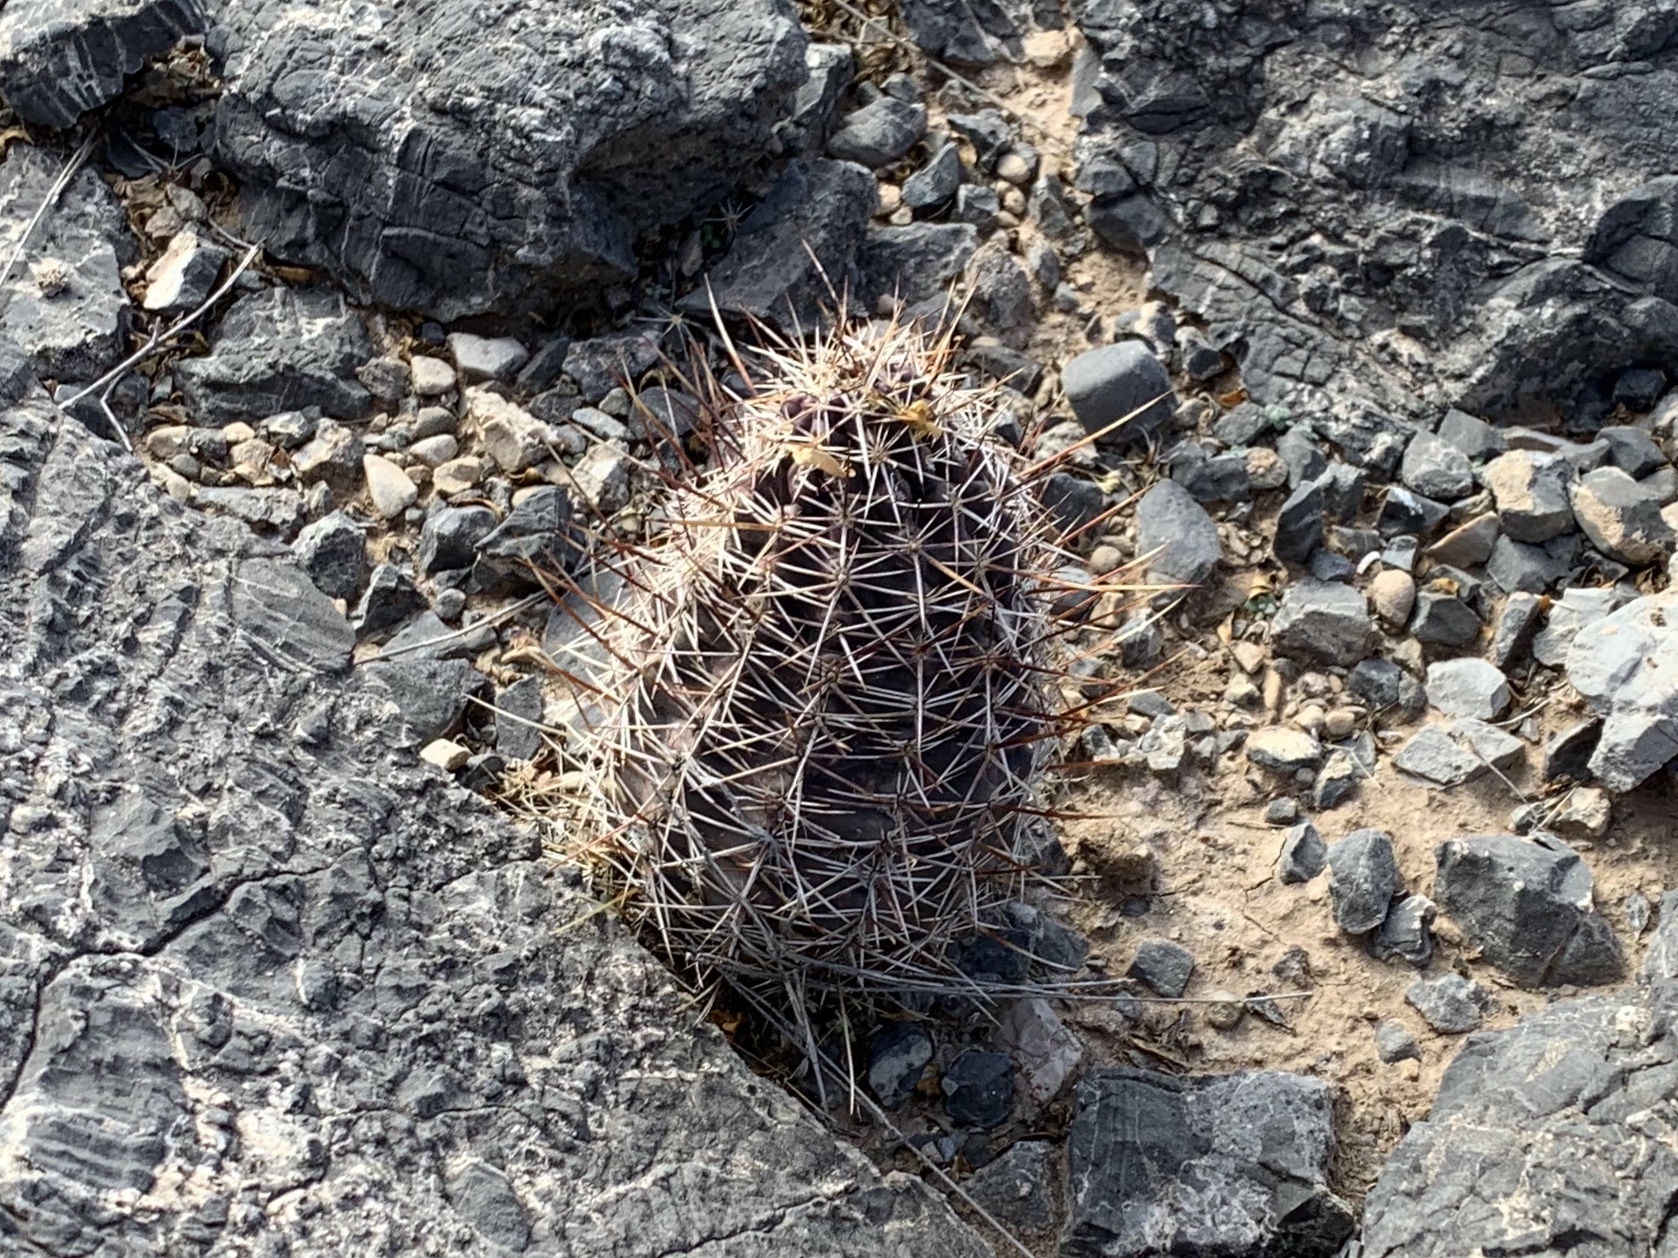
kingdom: Plantae
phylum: Tracheophyta
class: Magnoliopsida
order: Caryophyllales
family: Cactaceae
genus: Echinocereus
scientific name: Echinocereus fendleri
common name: Fendler's hedgehog cactus
